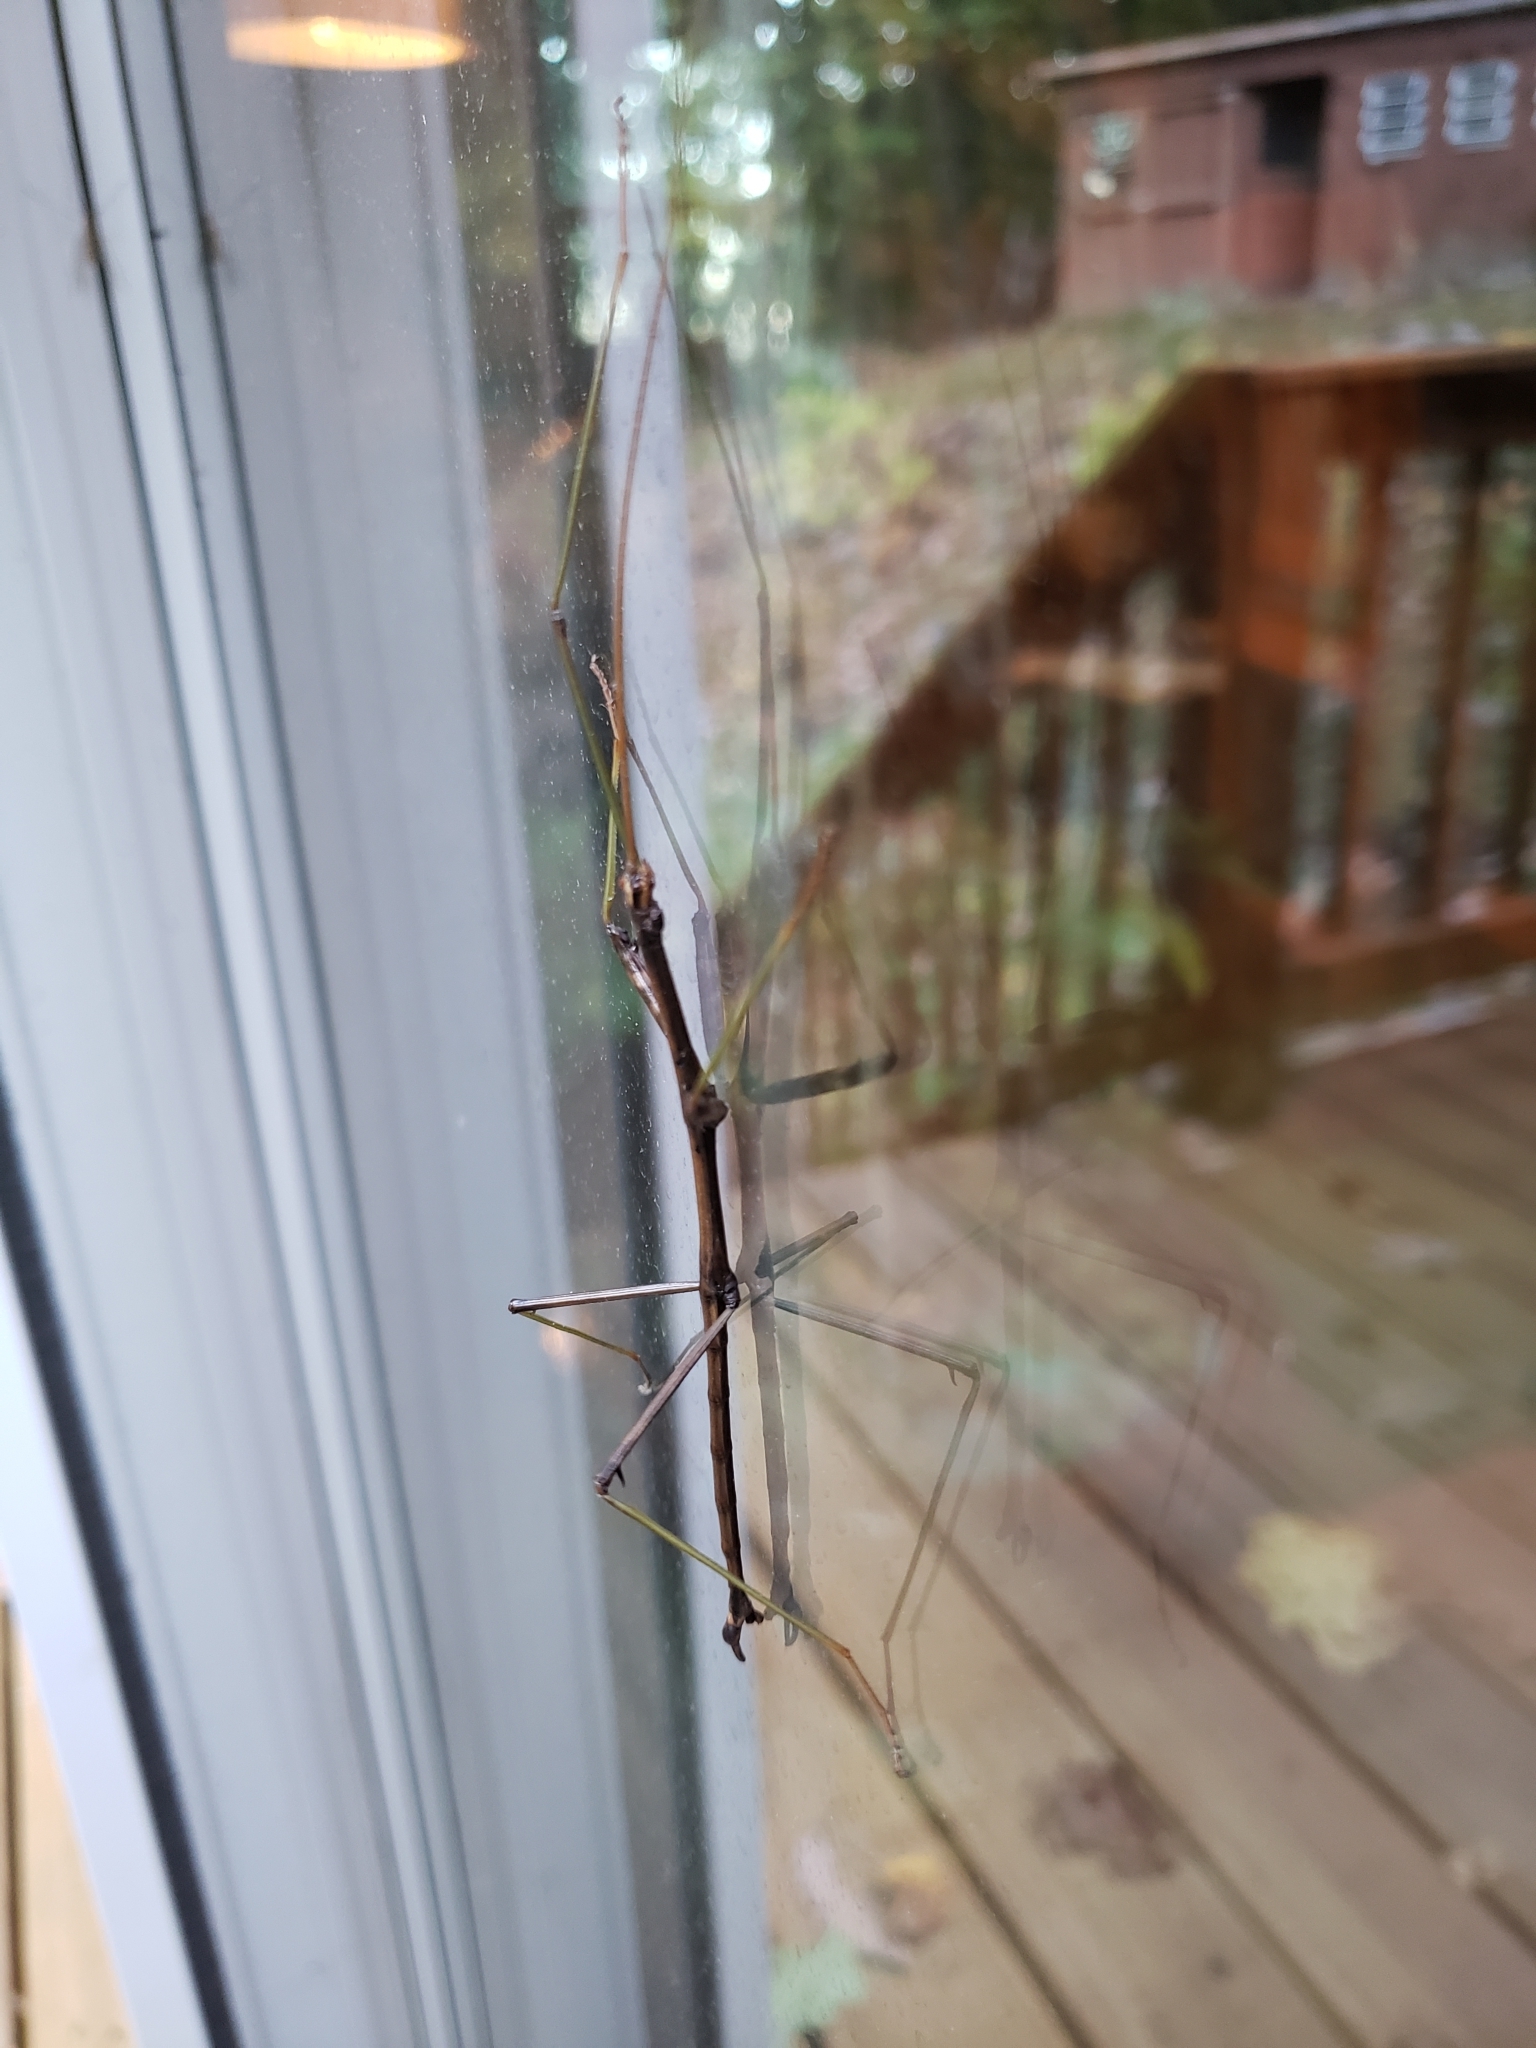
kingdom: Animalia
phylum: Arthropoda
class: Insecta
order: Phasmida
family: Diapheromeridae
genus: Diapheromera
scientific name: Diapheromera femorata
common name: Common american walkingstick
